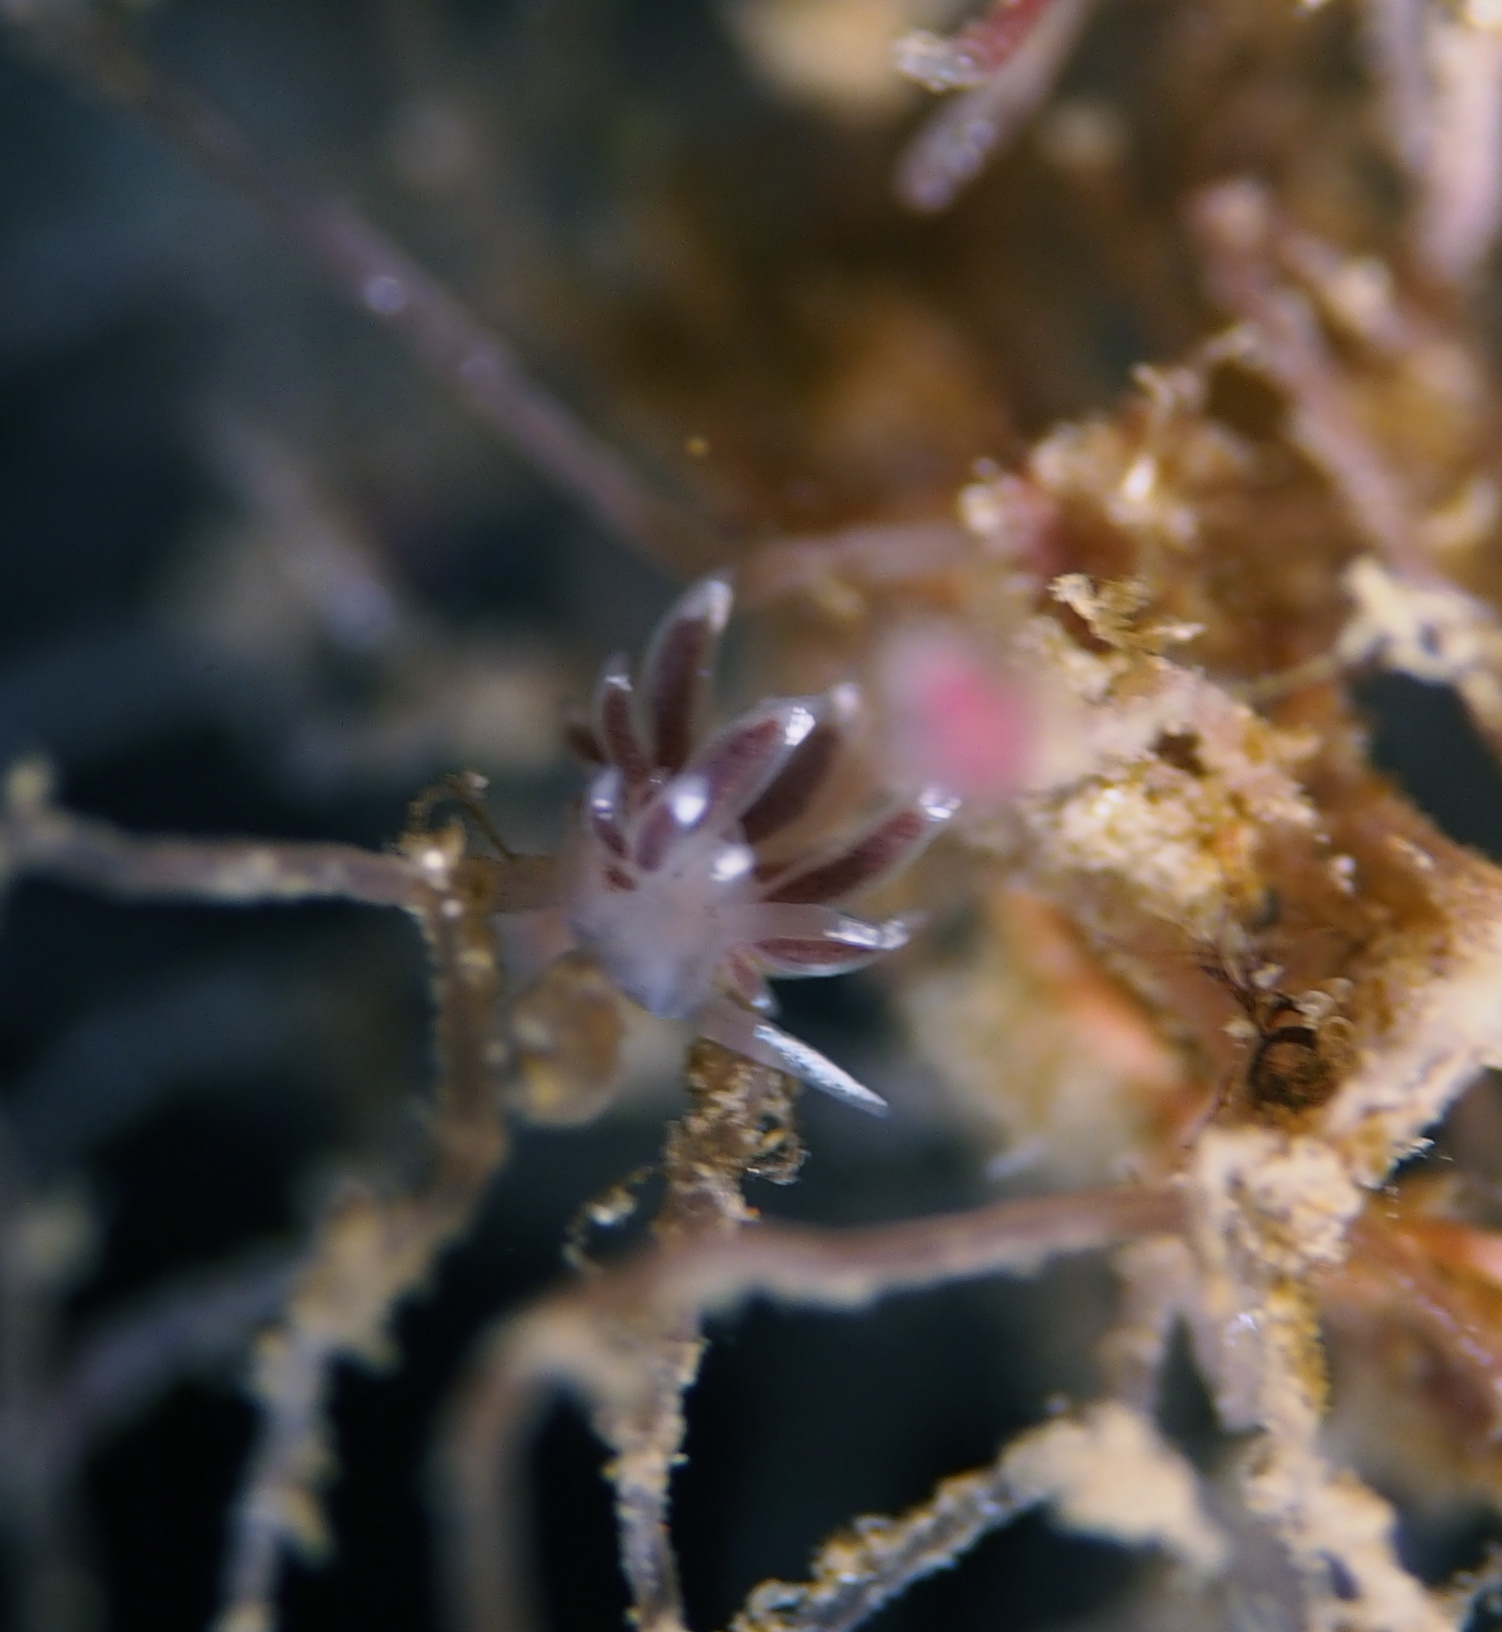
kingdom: Animalia
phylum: Mollusca
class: Gastropoda
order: Nudibranchia
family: Coryphellidae
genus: Coryphella
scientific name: Coryphella gracilis
